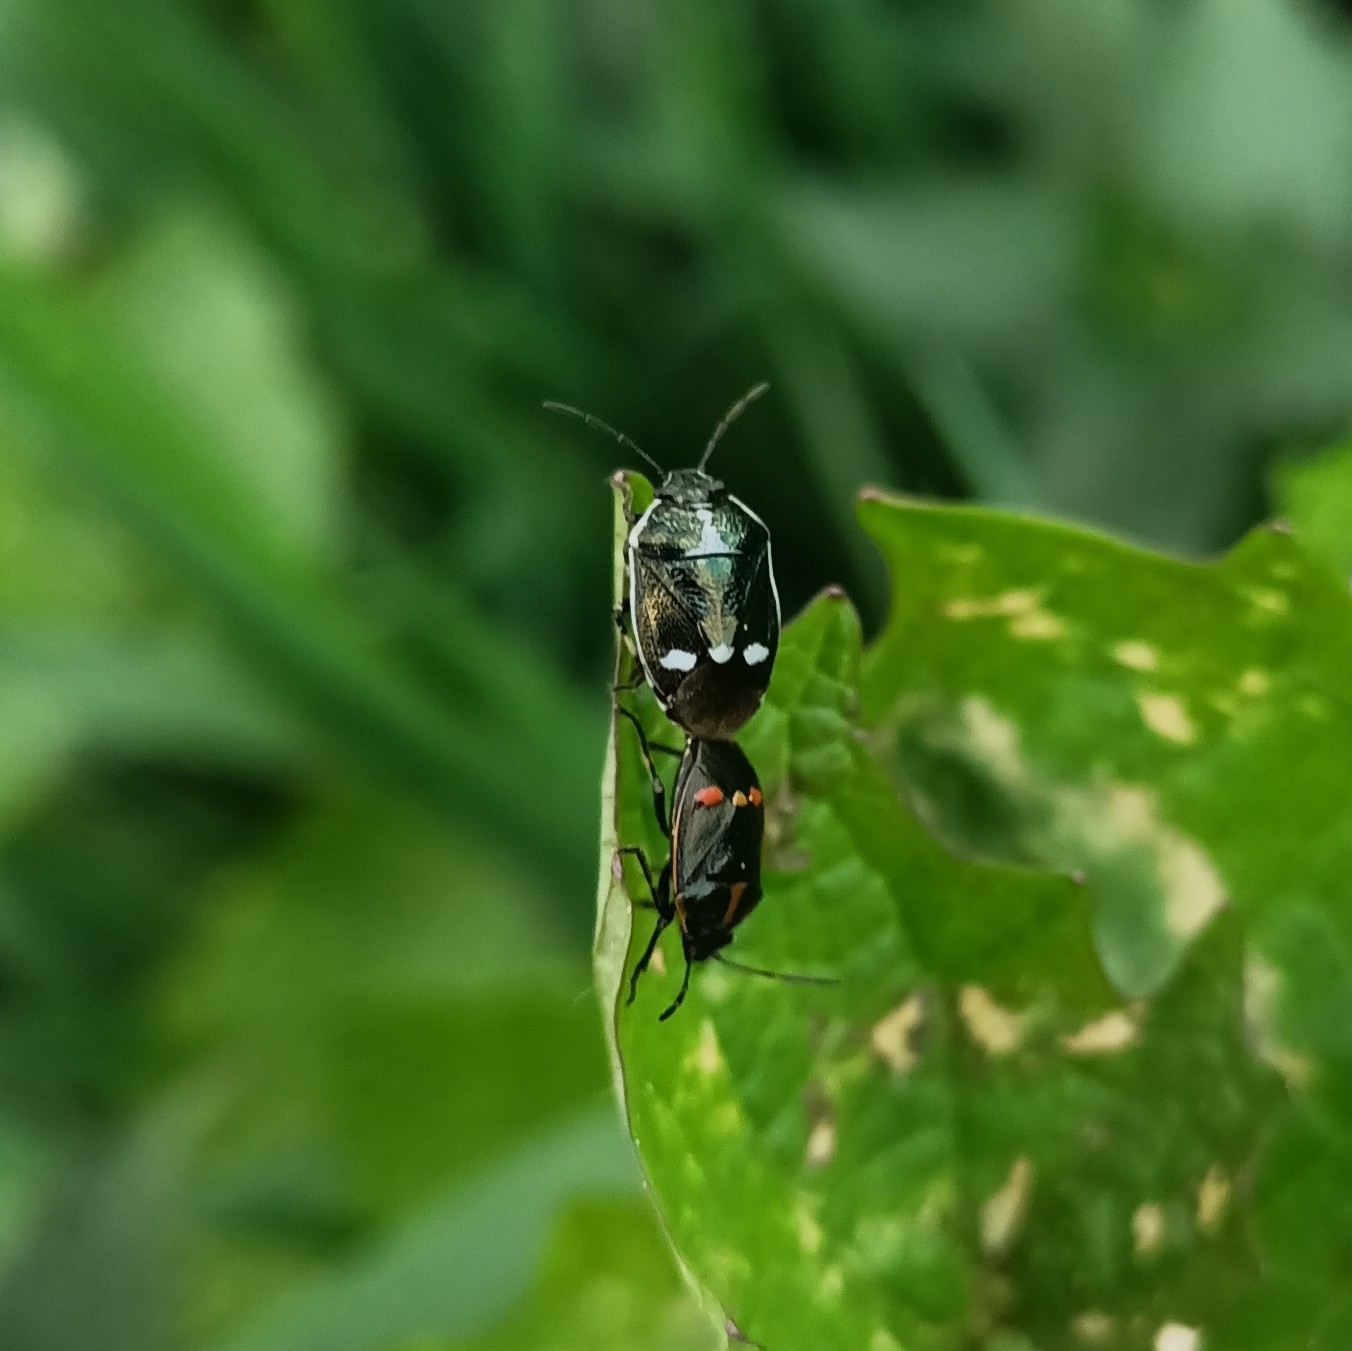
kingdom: Animalia
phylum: Arthropoda
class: Insecta
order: Hemiptera
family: Pentatomidae
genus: Eurydema
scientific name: Eurydema oleracea
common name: Cabbage bug
